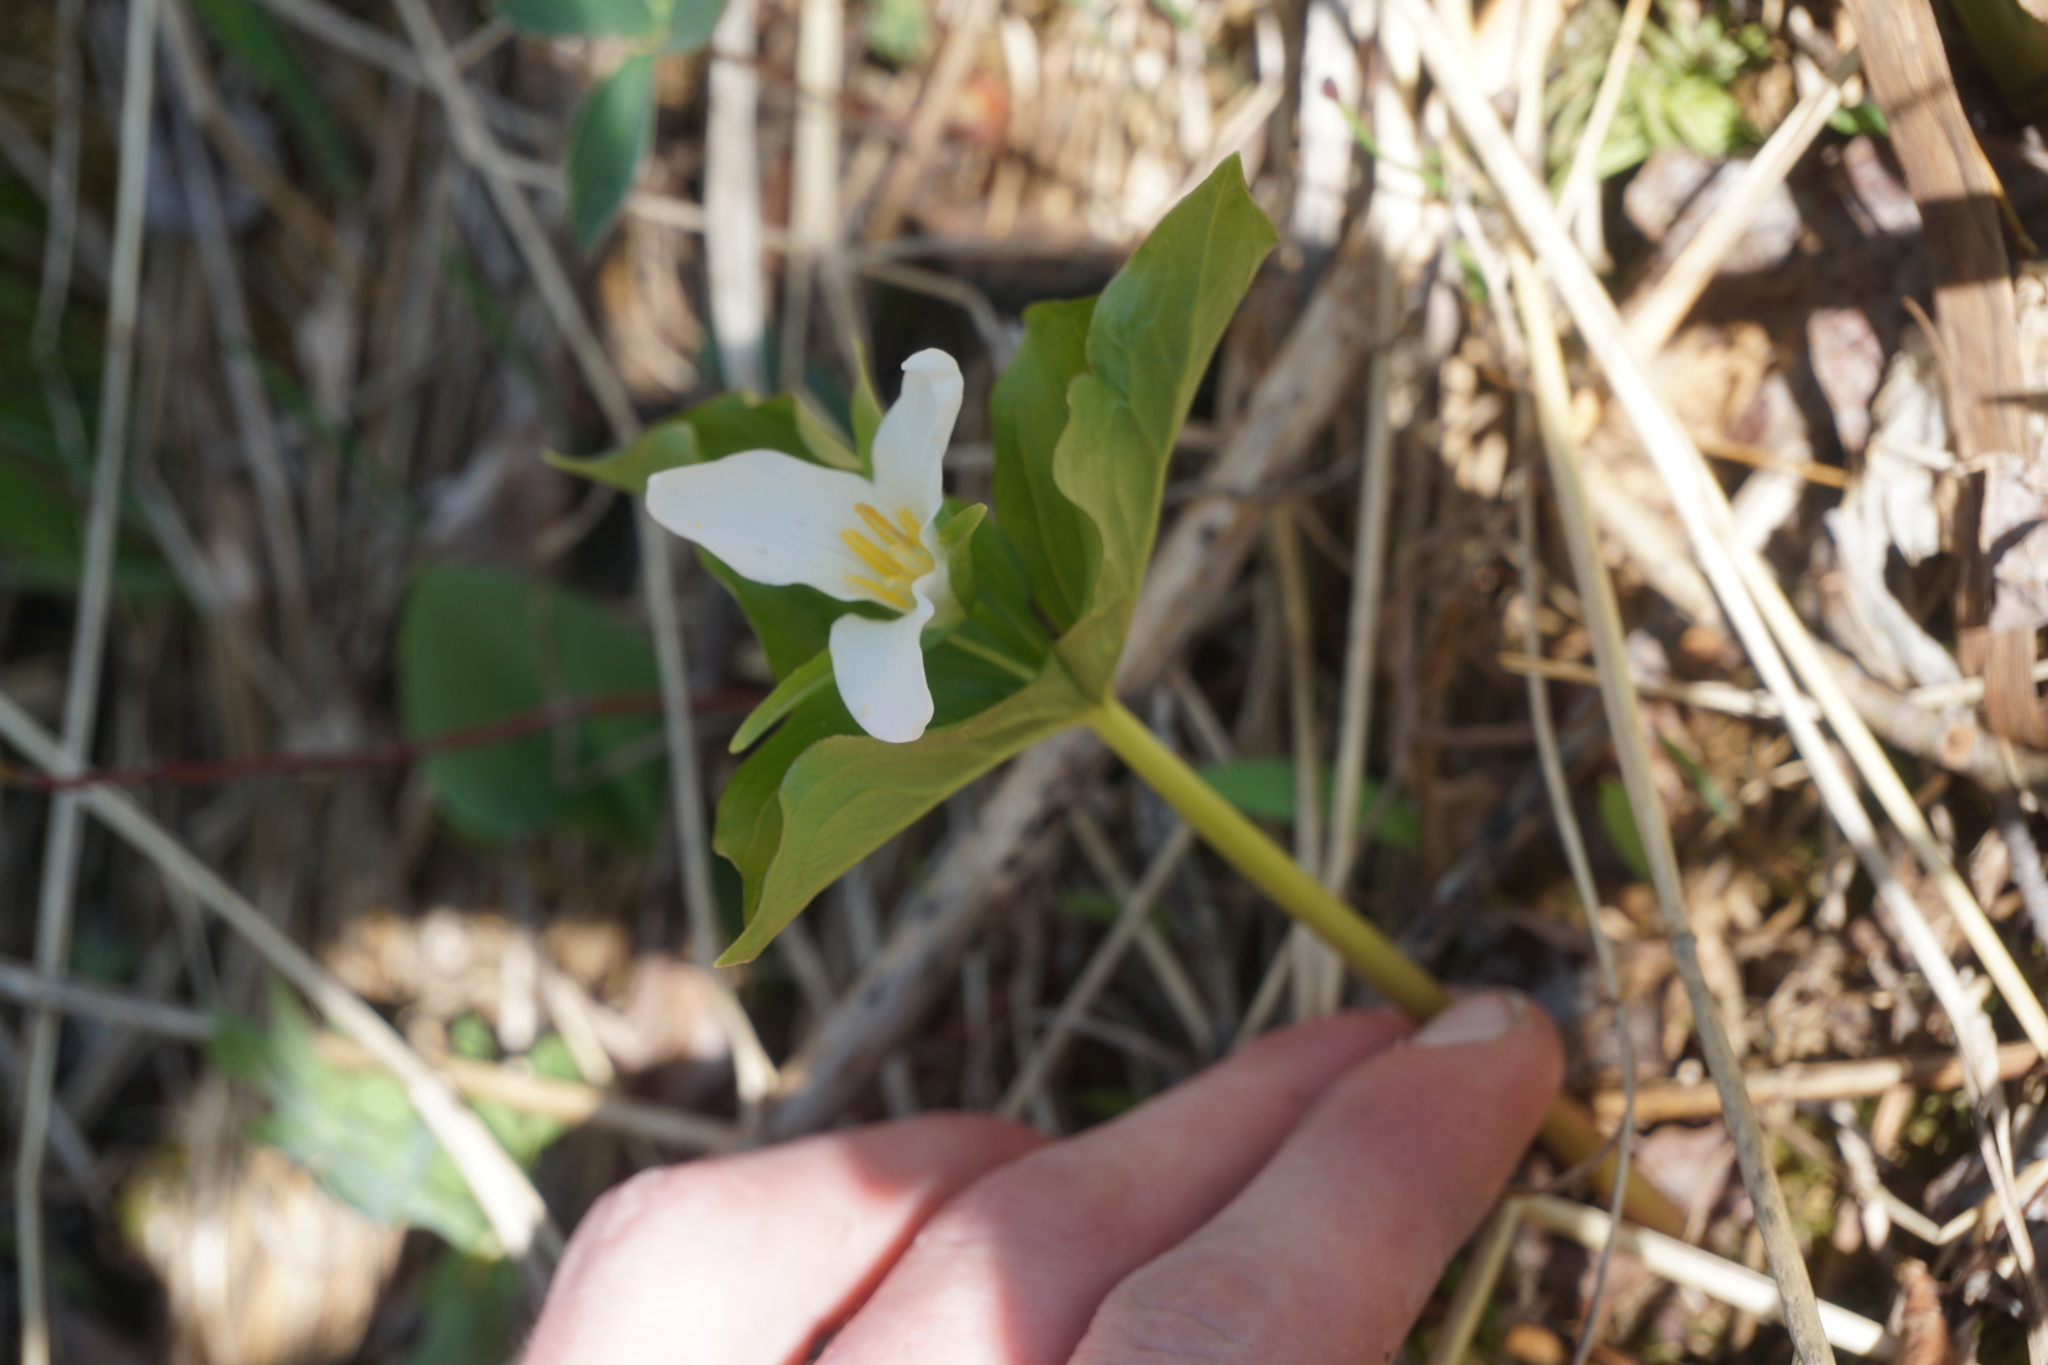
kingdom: Plantae
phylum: Tracheophyta
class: Liliopsida
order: Liliales
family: Melanthiaceae
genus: Trillium
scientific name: Trillium ovatum
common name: Pacific trillium
